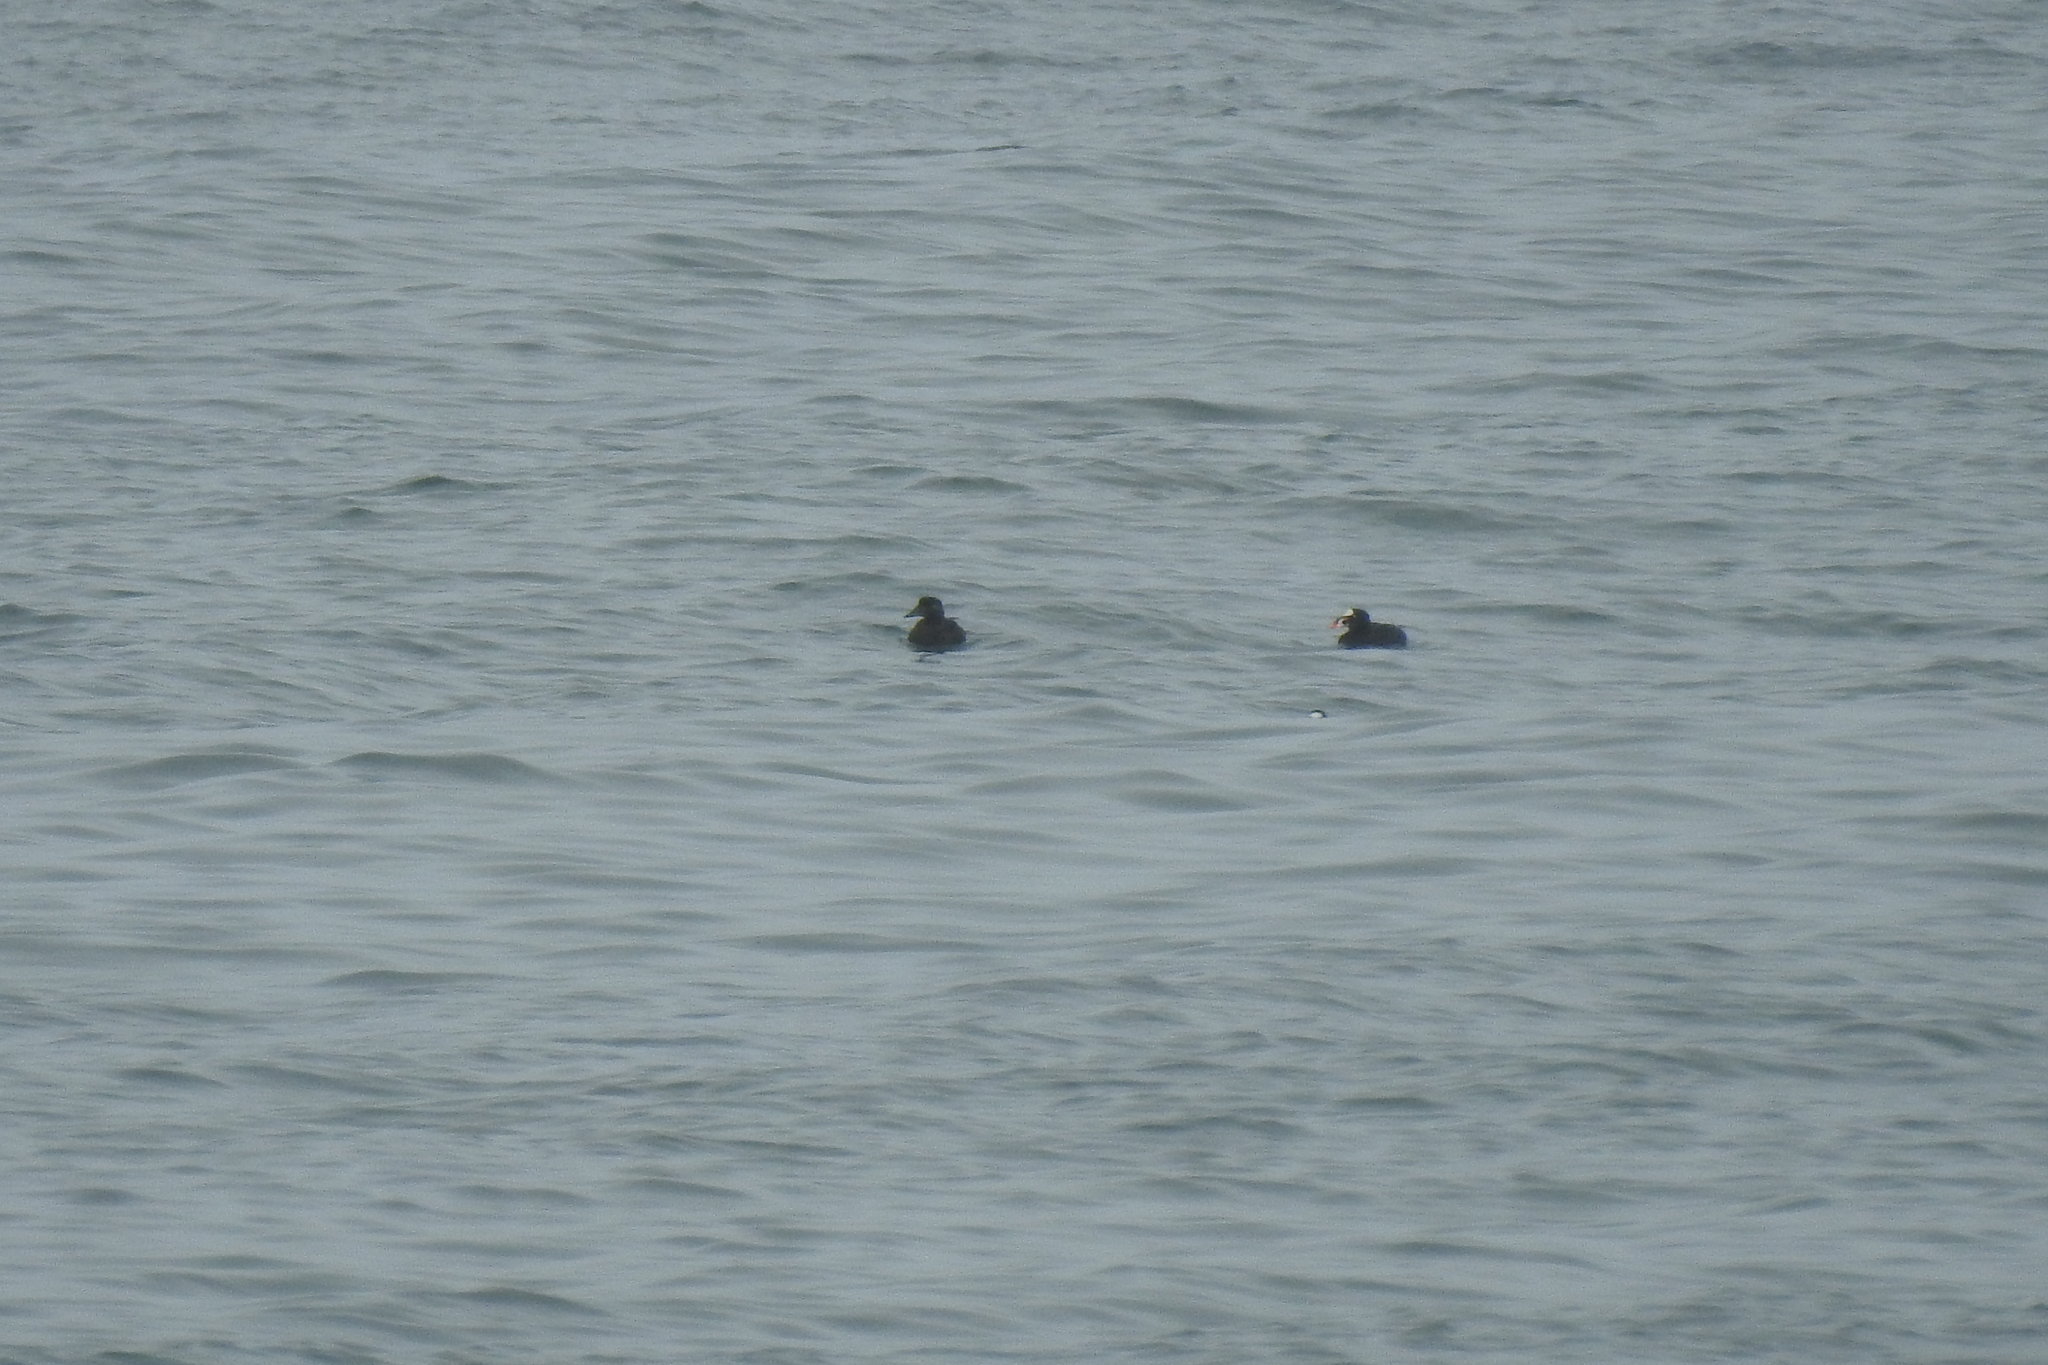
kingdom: Animalia
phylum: Chordata
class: Aves
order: Anseriformes
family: Anatidae
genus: Melanitta
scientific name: Melanitta perspicillata
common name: Surf scoter
